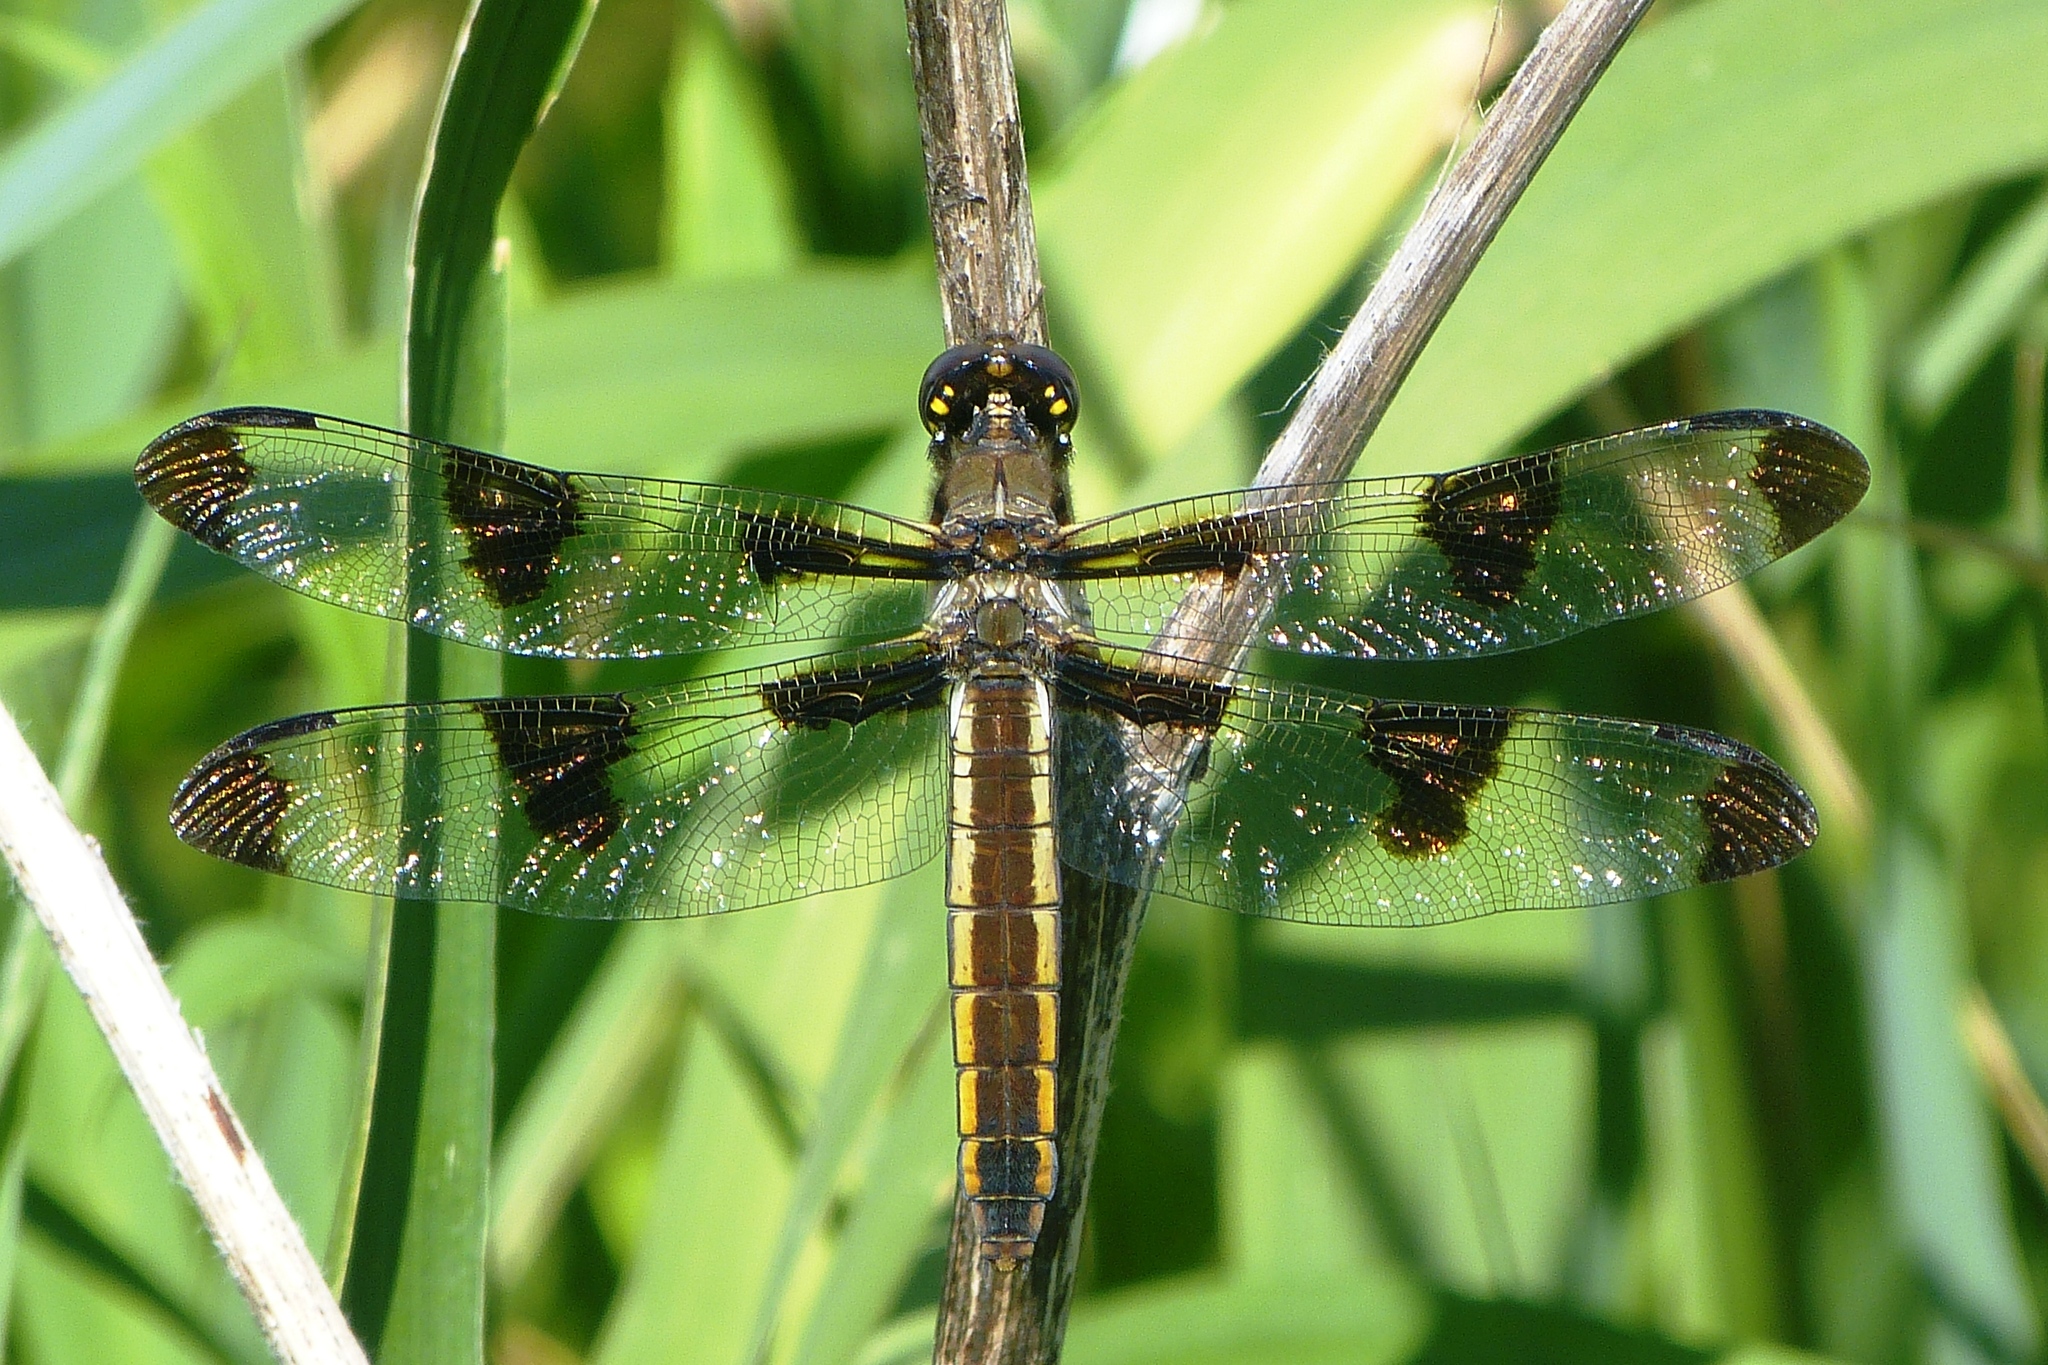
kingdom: Animalia
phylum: Arthropoda
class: Insecta
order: Odonata
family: Libellulidae
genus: Libellula
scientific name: Libellula pulchella
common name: Twelve-spotted skimmer
